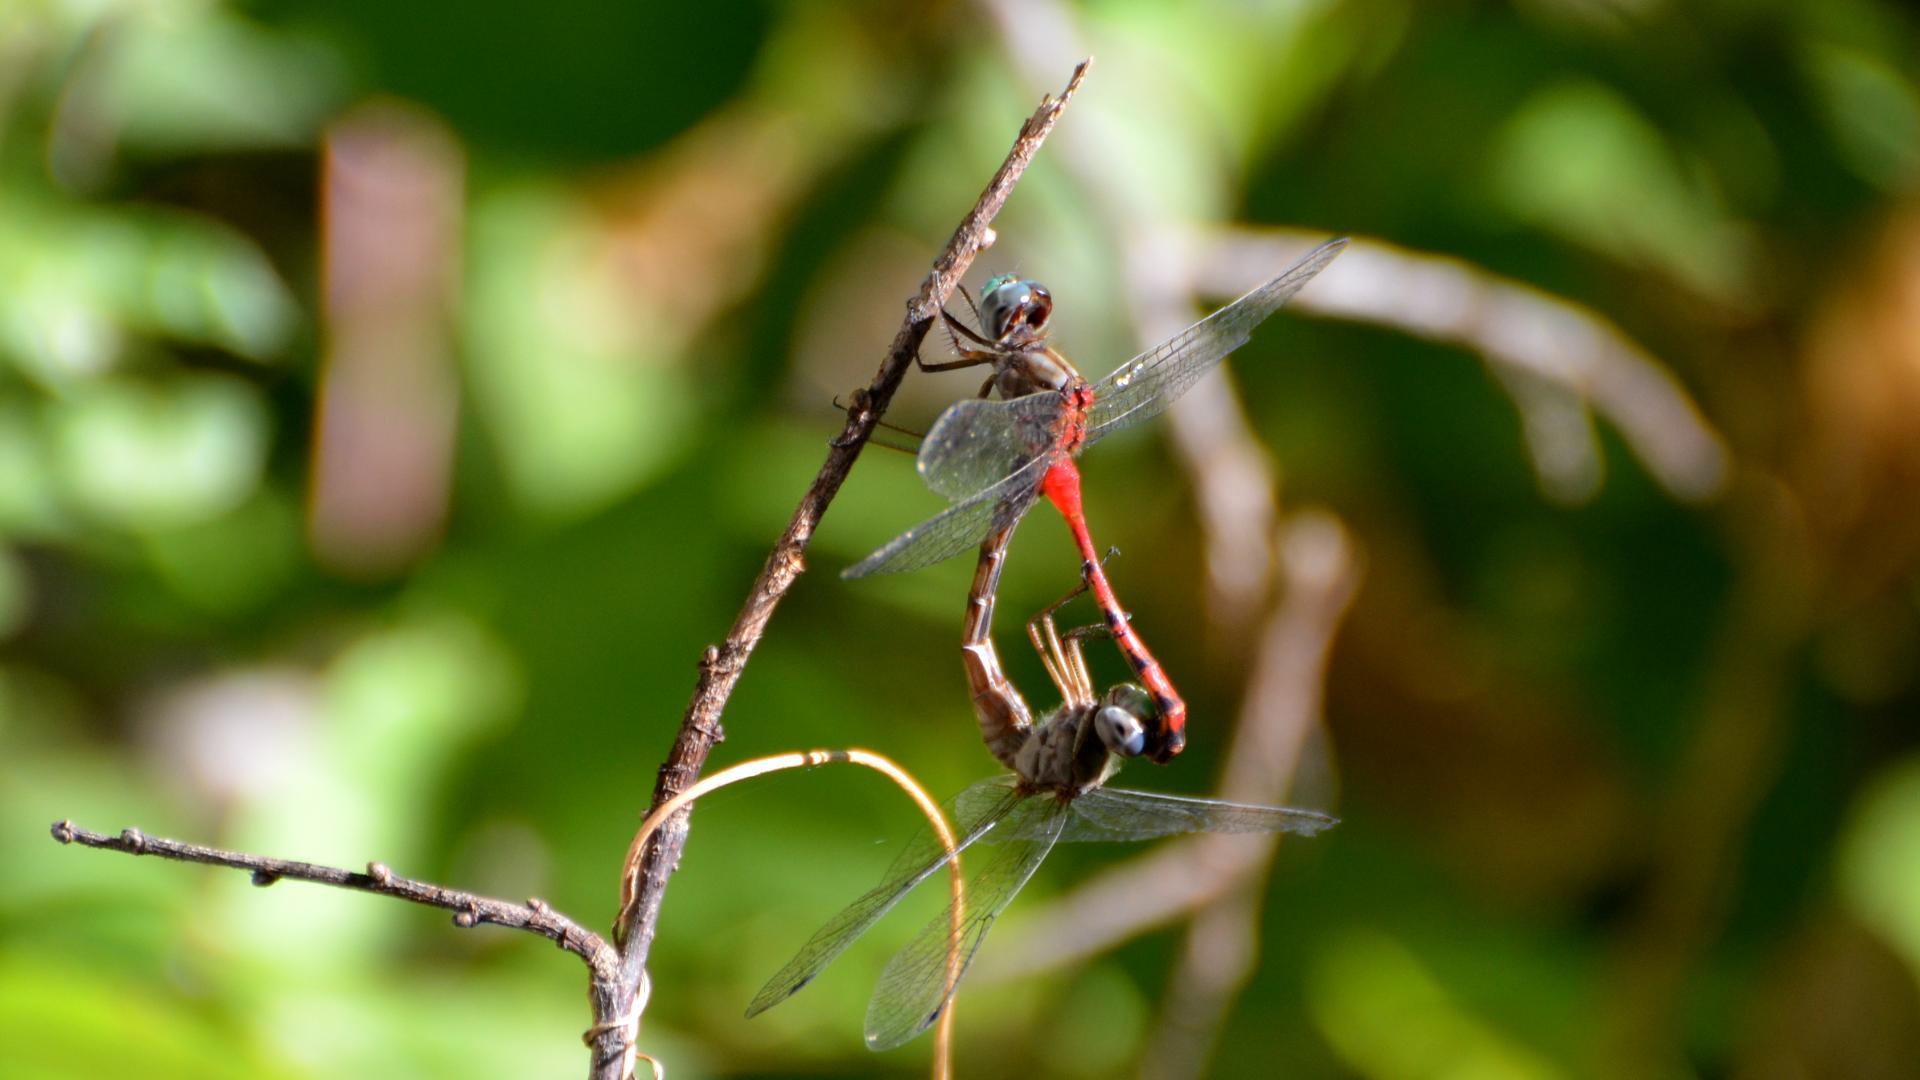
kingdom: Animalia
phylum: Arthropoda
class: Insecta
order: Odonata
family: Libellulidae
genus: Sympetrum
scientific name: Sympetrum ambiguum
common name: Blue-faced meadowhawk
